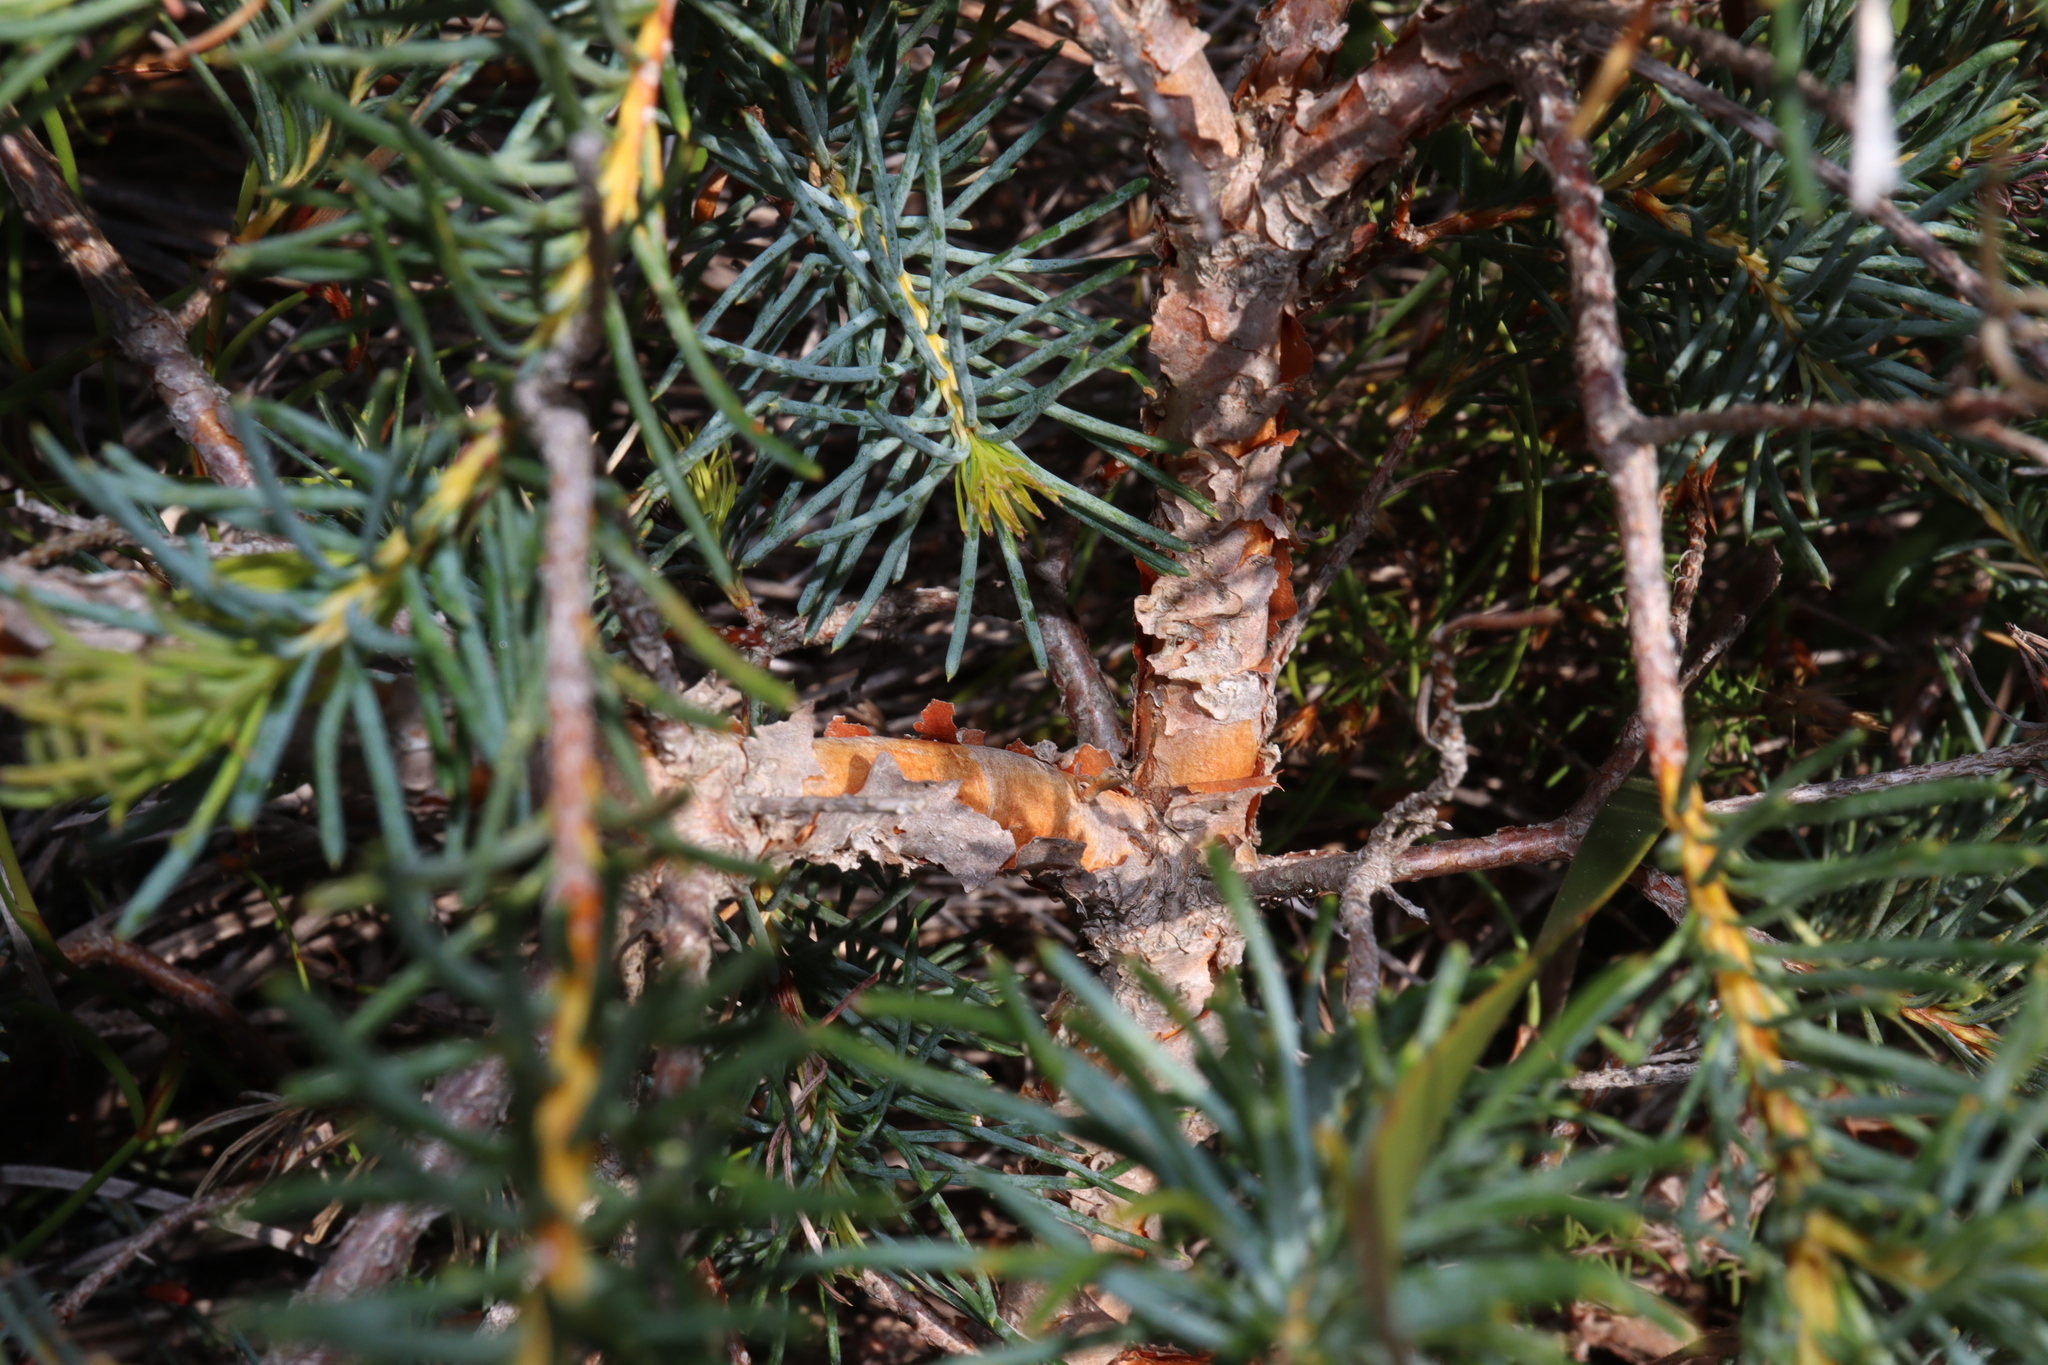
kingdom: Plantae
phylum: Tracheophyta
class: Magnoliopsida
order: Proteales
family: Proteaceae
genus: Banksia
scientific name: Banksia nutans
